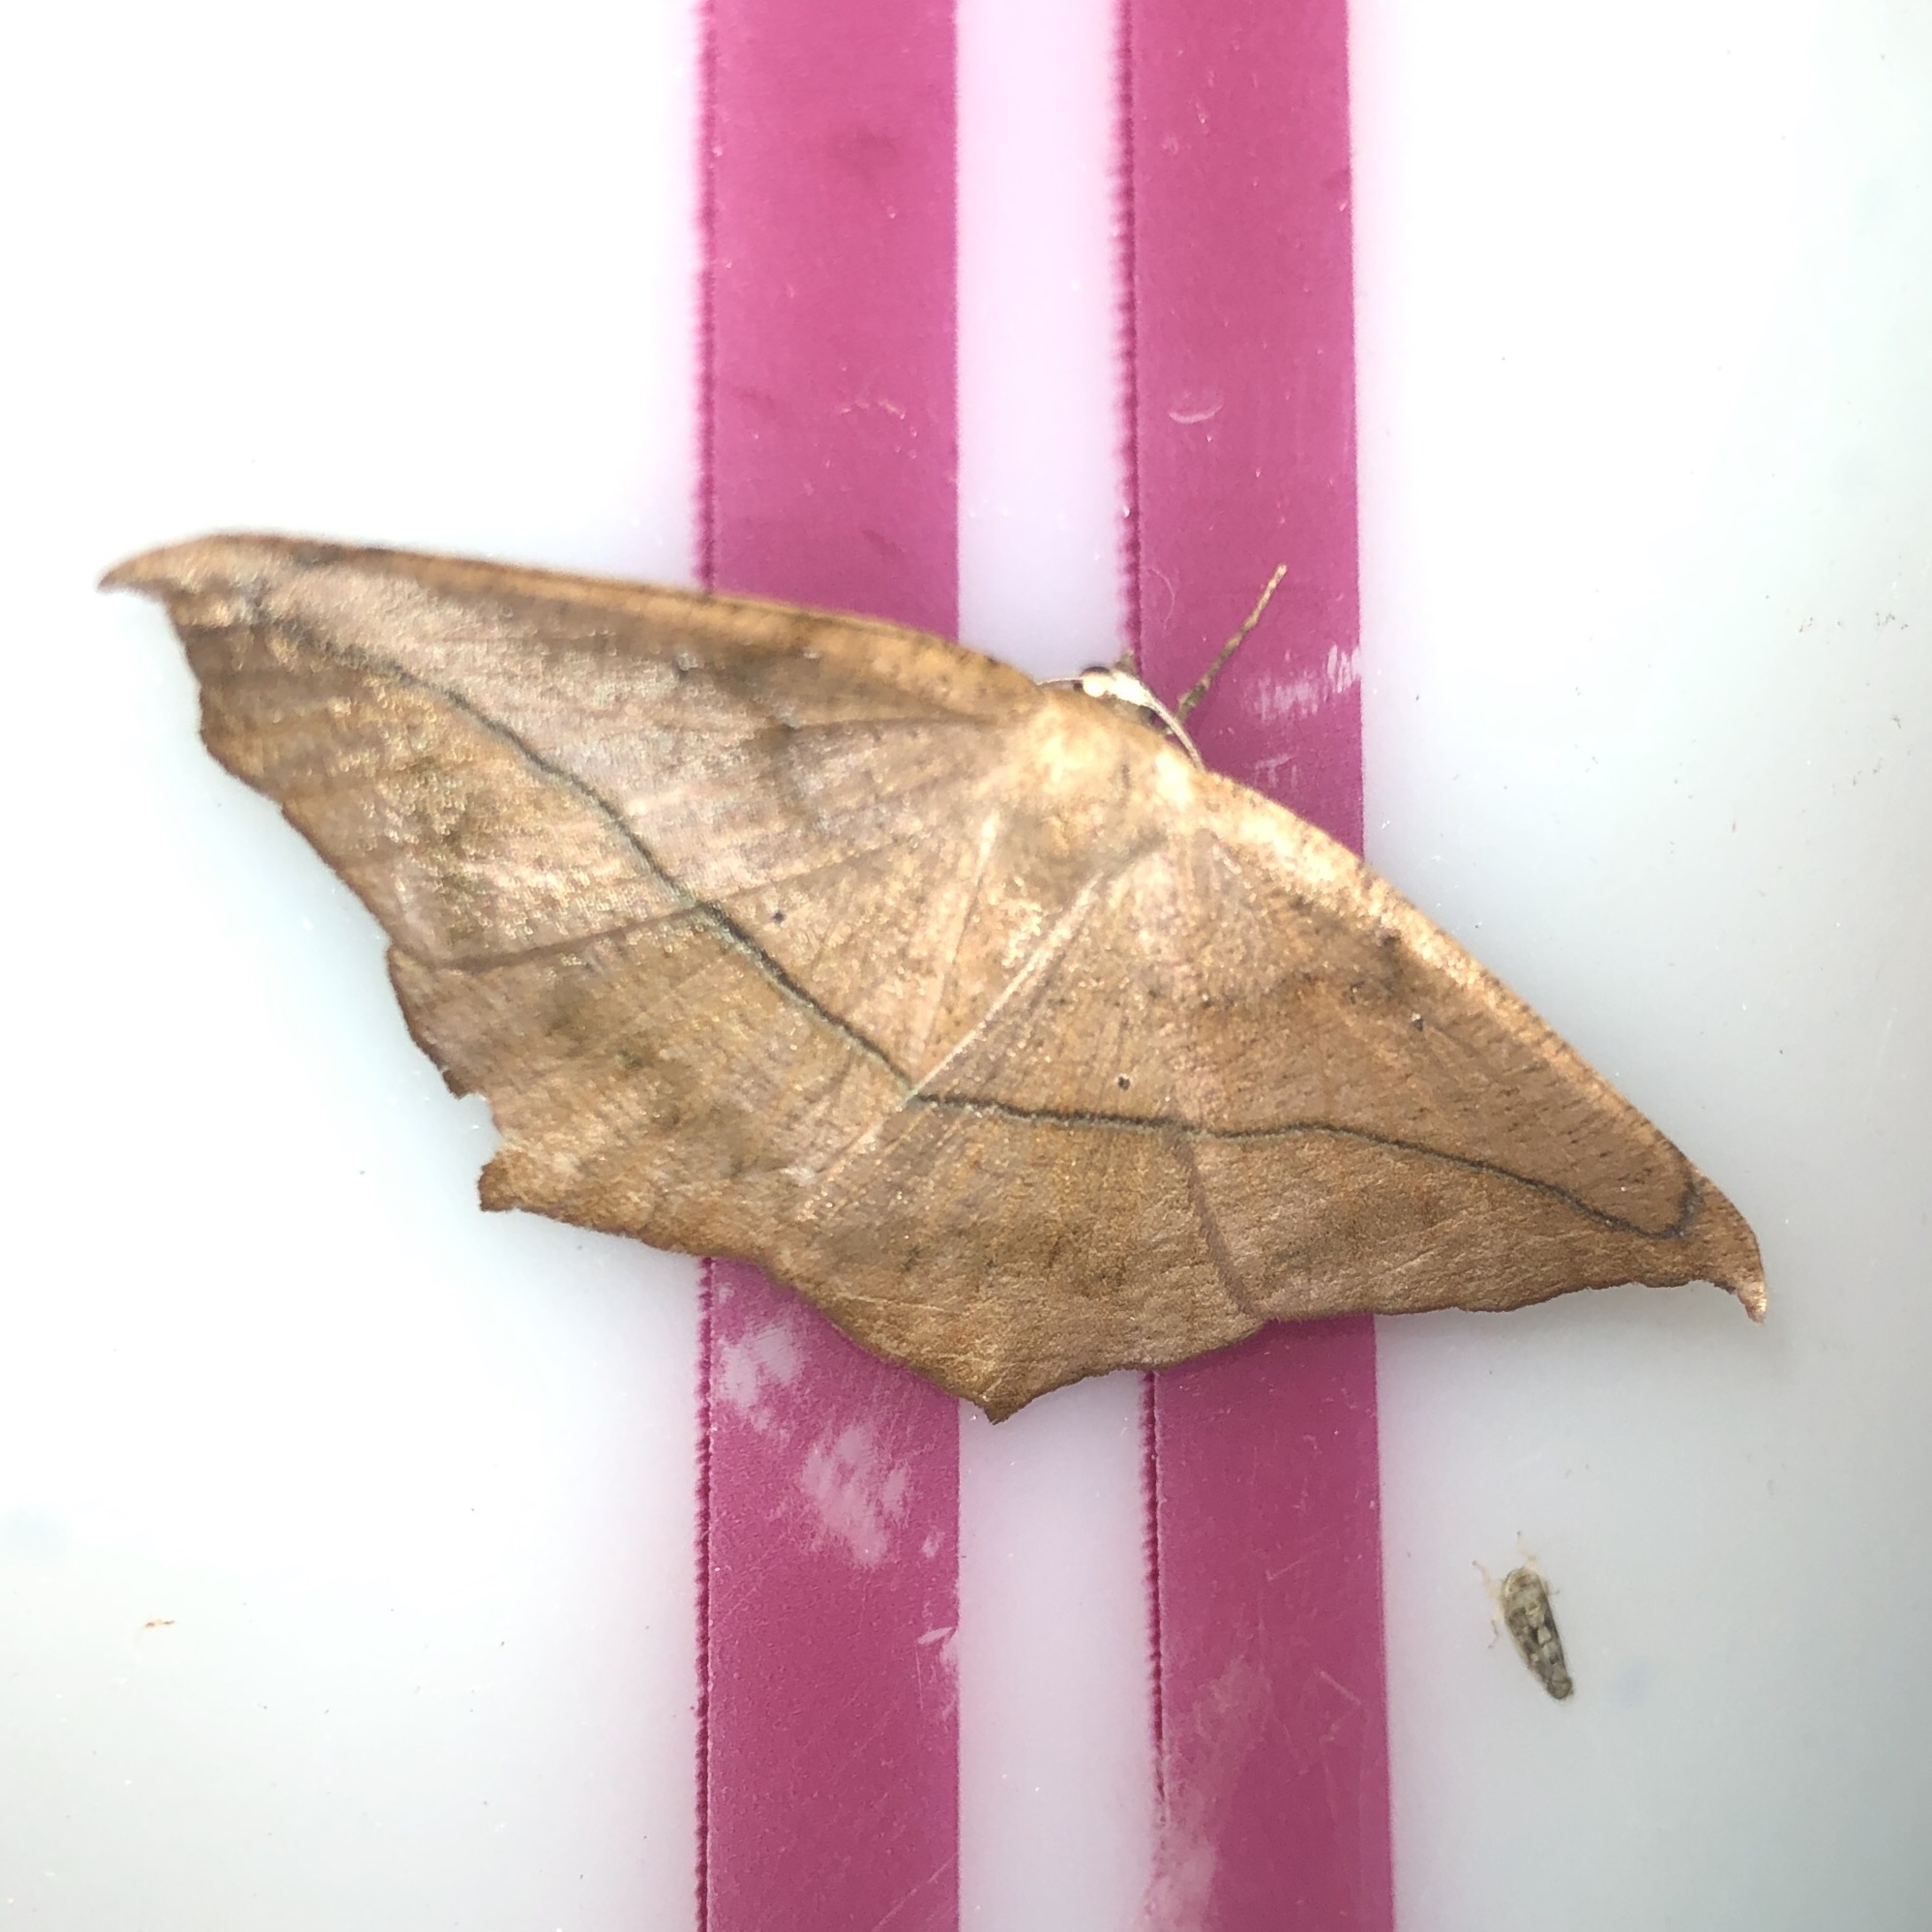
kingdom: Animalia
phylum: Arthropoda
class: Insecta
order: Lepidoptera
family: Geometridae
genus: Prochoerodes
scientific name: Prochoerodes lineola
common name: Large maple spanworm
